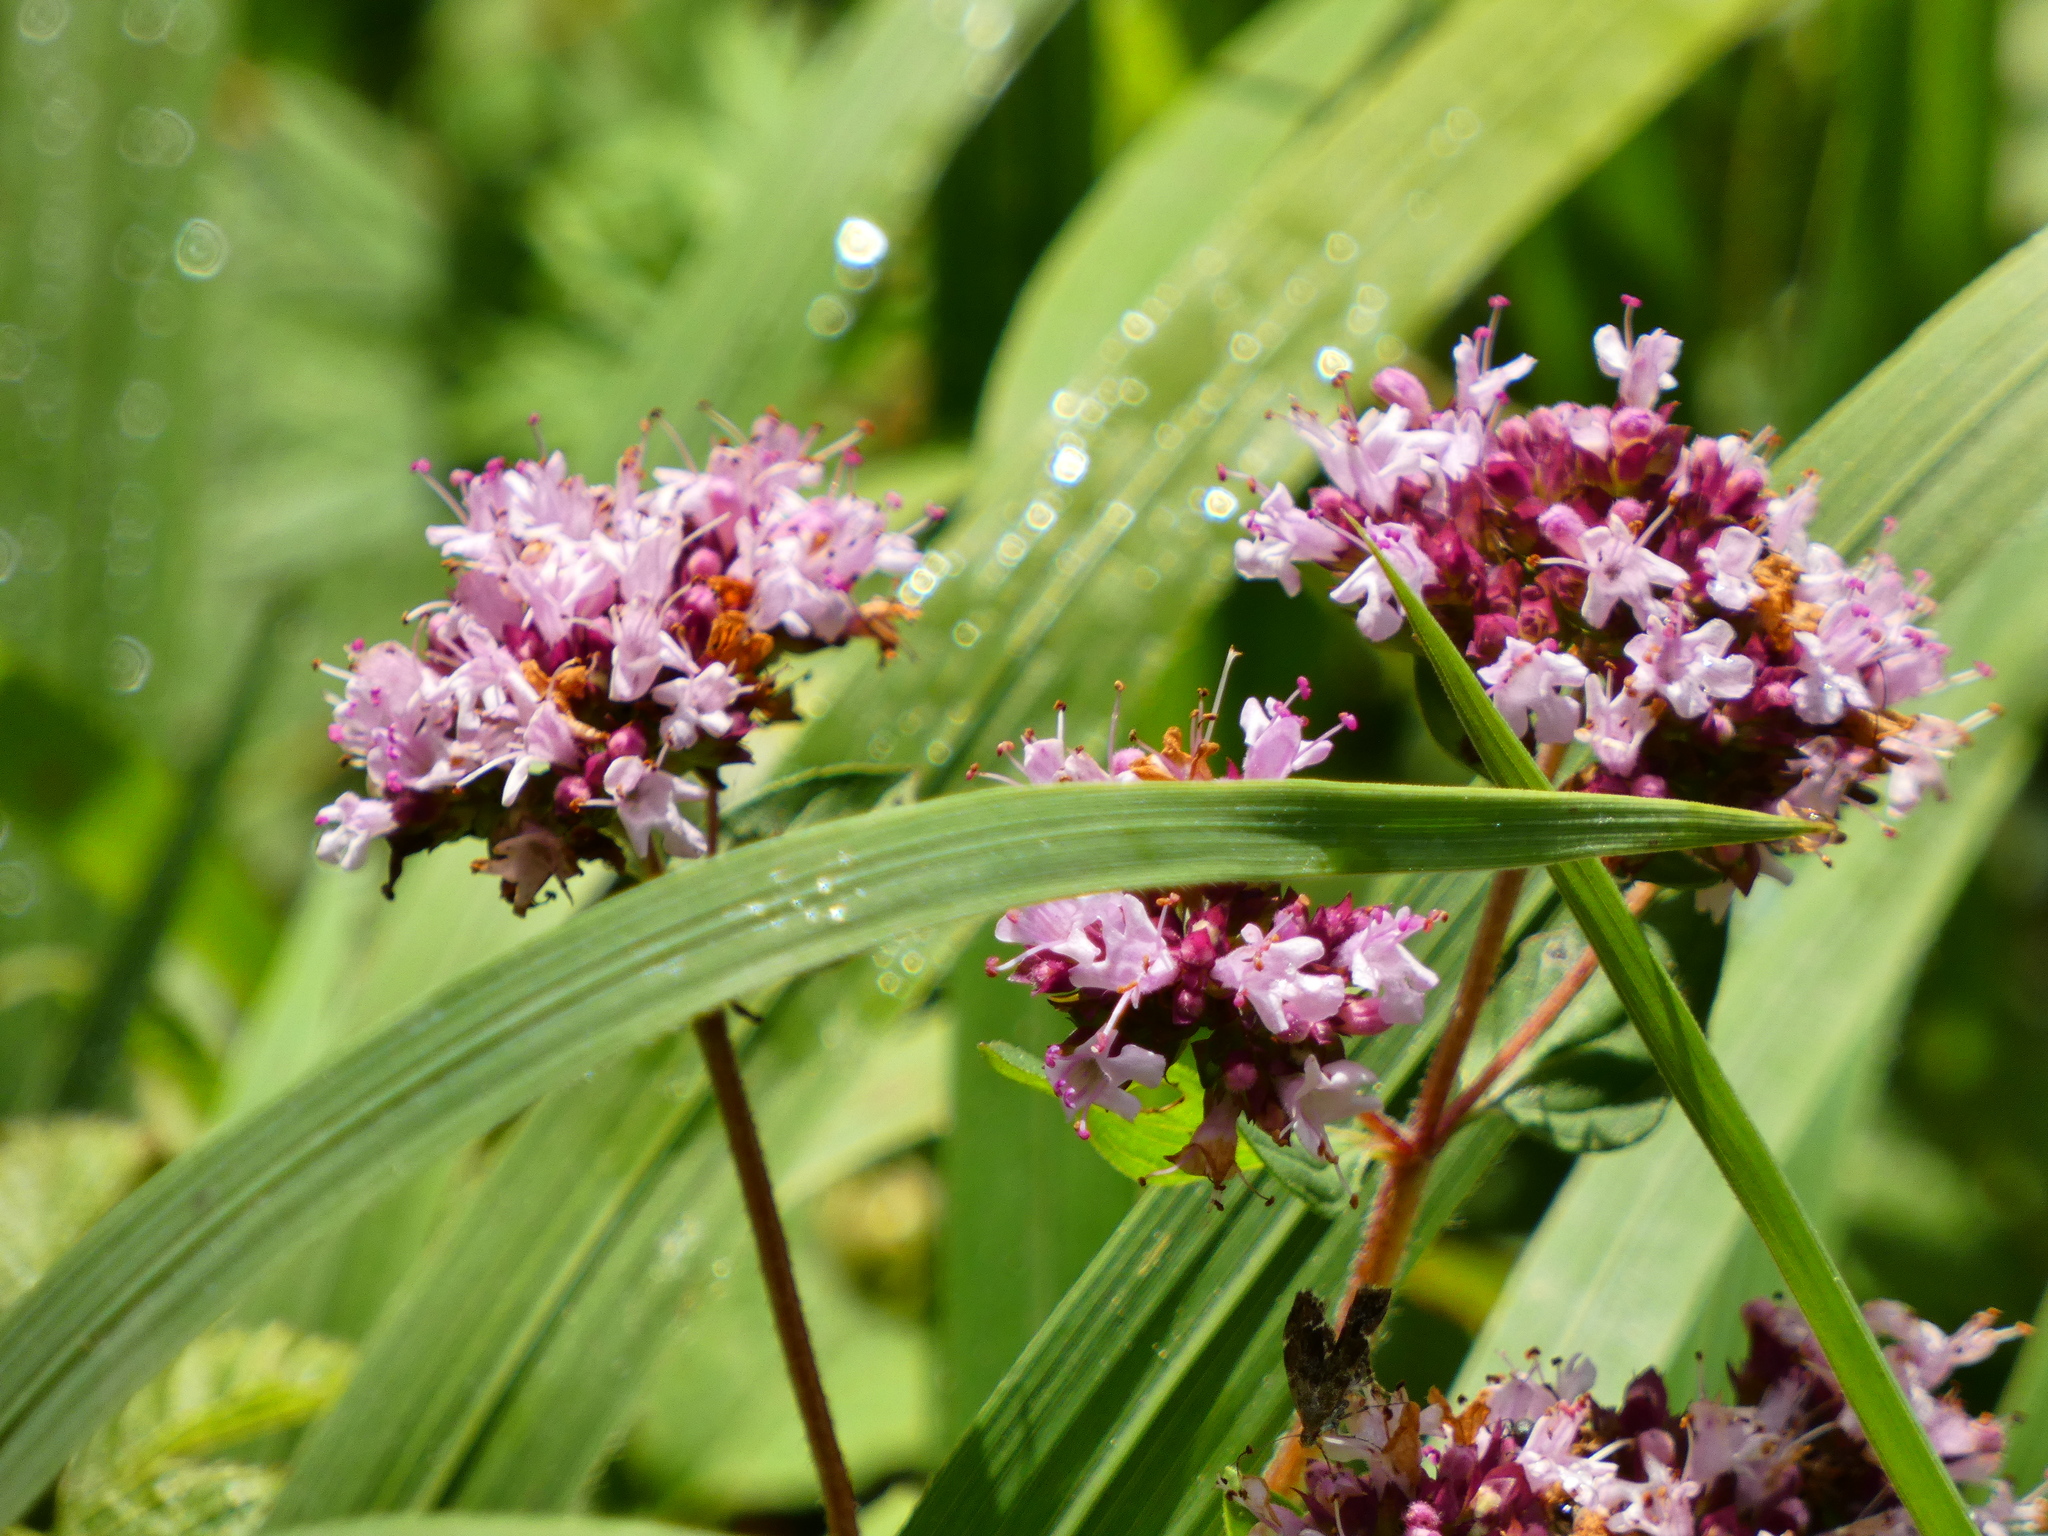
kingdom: Plantae
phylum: Tracheophyta
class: Magnoliopsida
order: Lamiales
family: Lamiaceae
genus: Origanum
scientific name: Origanum vulgare
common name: Wild marjoram
